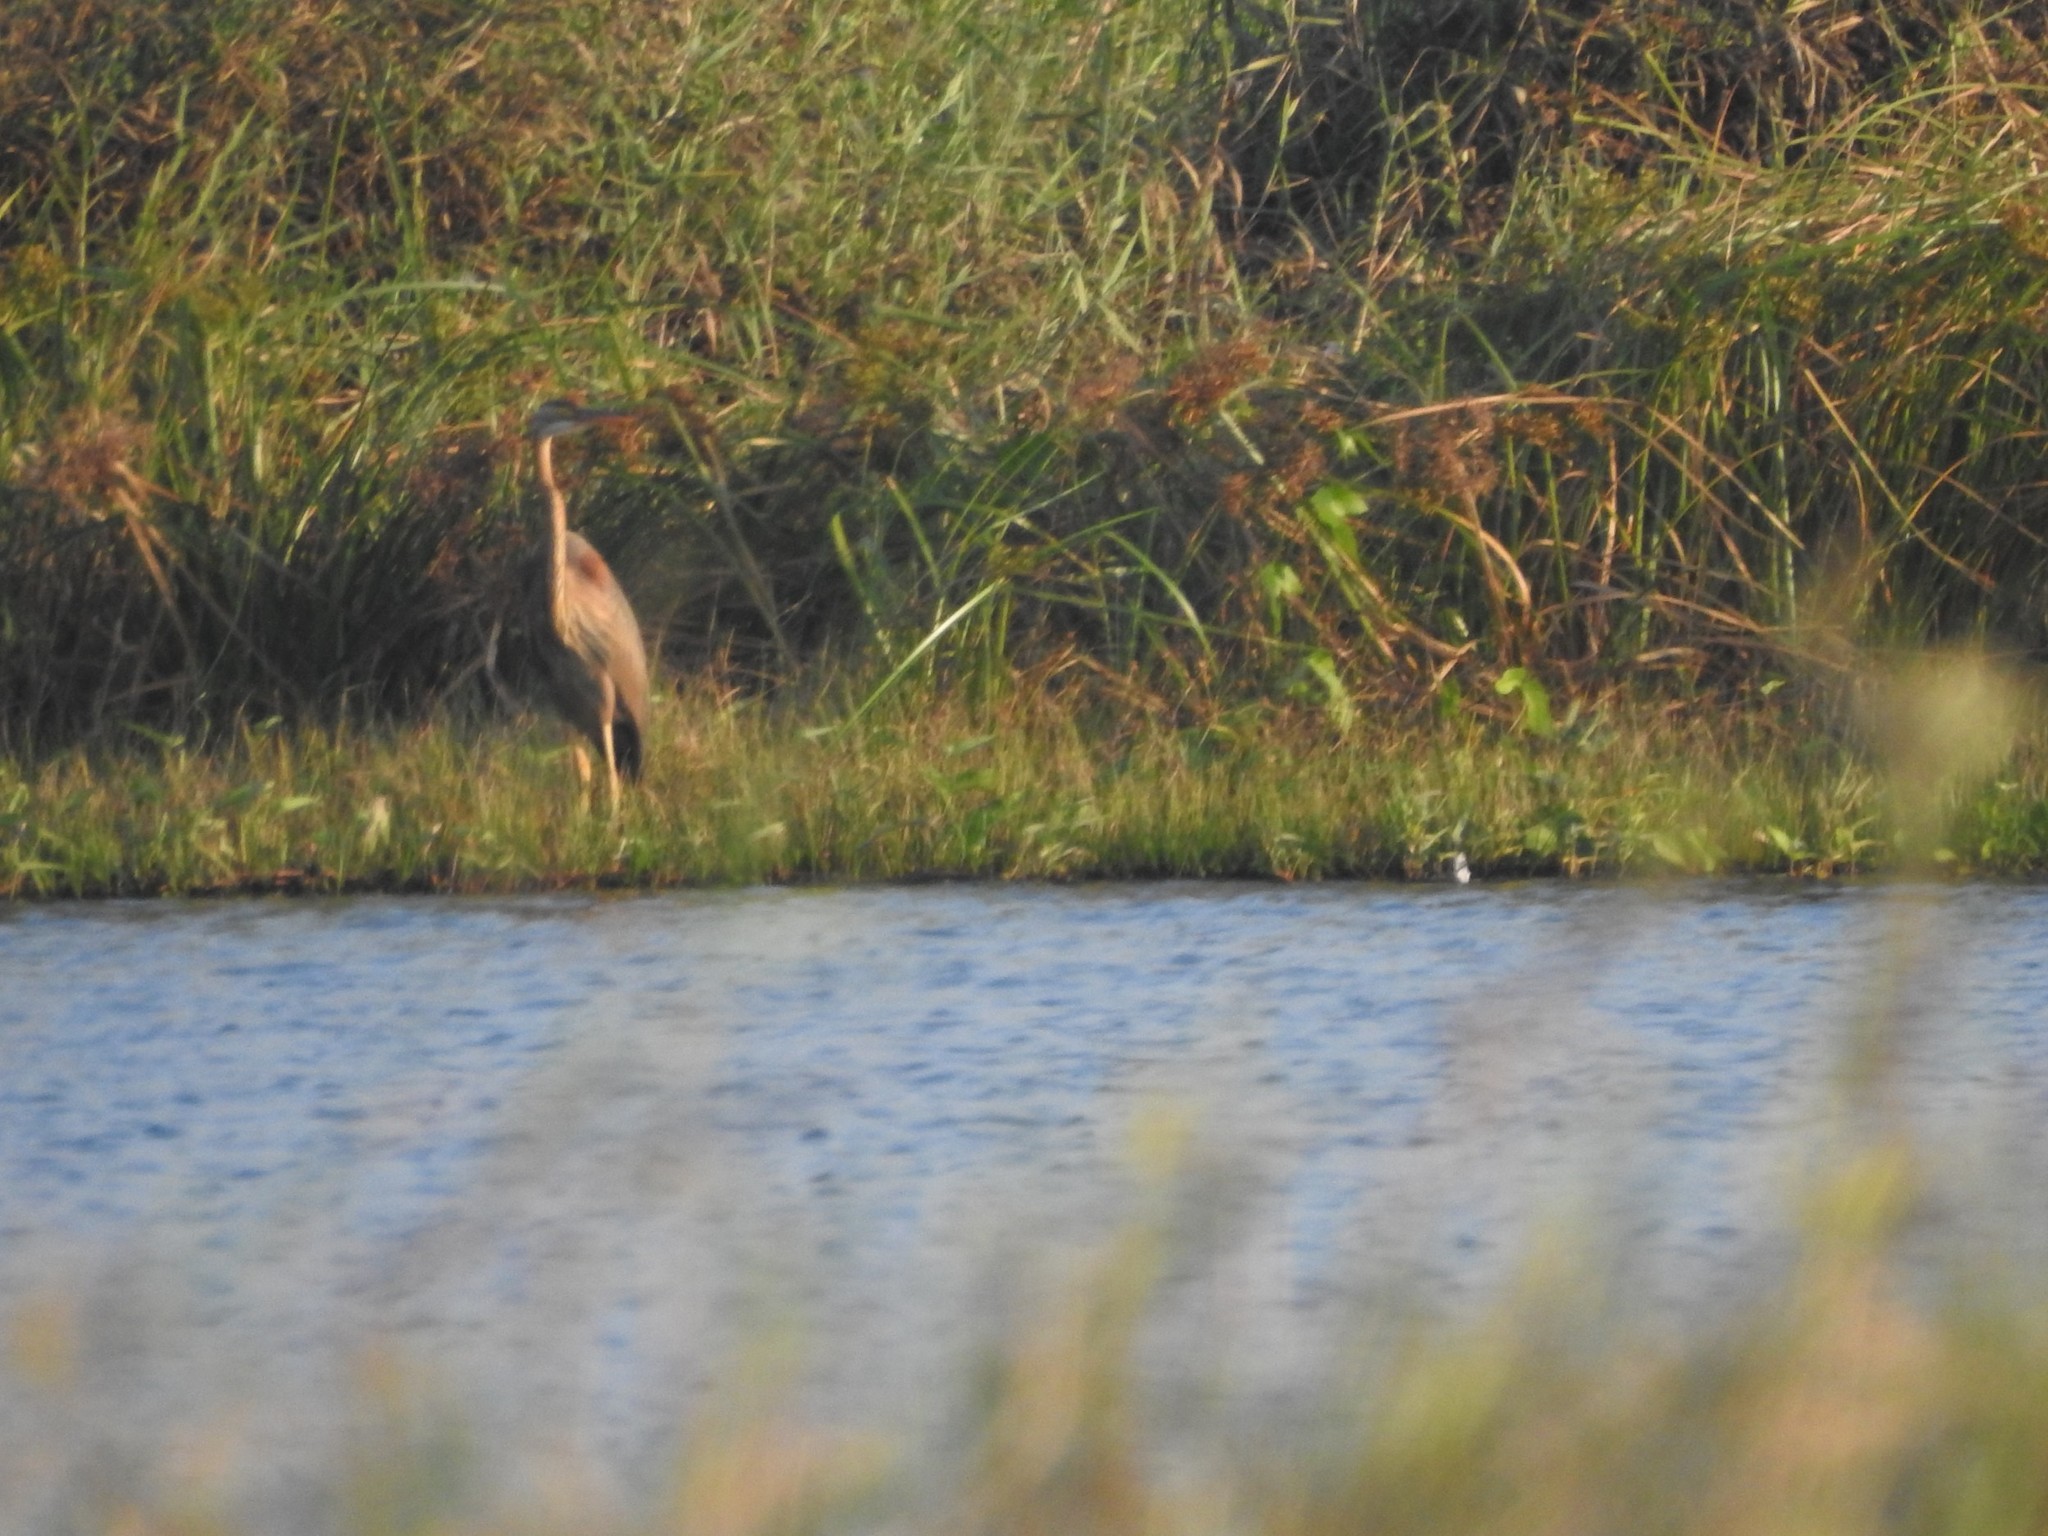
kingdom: Animalia
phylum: Chordata
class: Aves
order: Pelecaniformes
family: Ardeidae
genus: Ardea
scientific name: Ardea purpurea
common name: Purple heron
